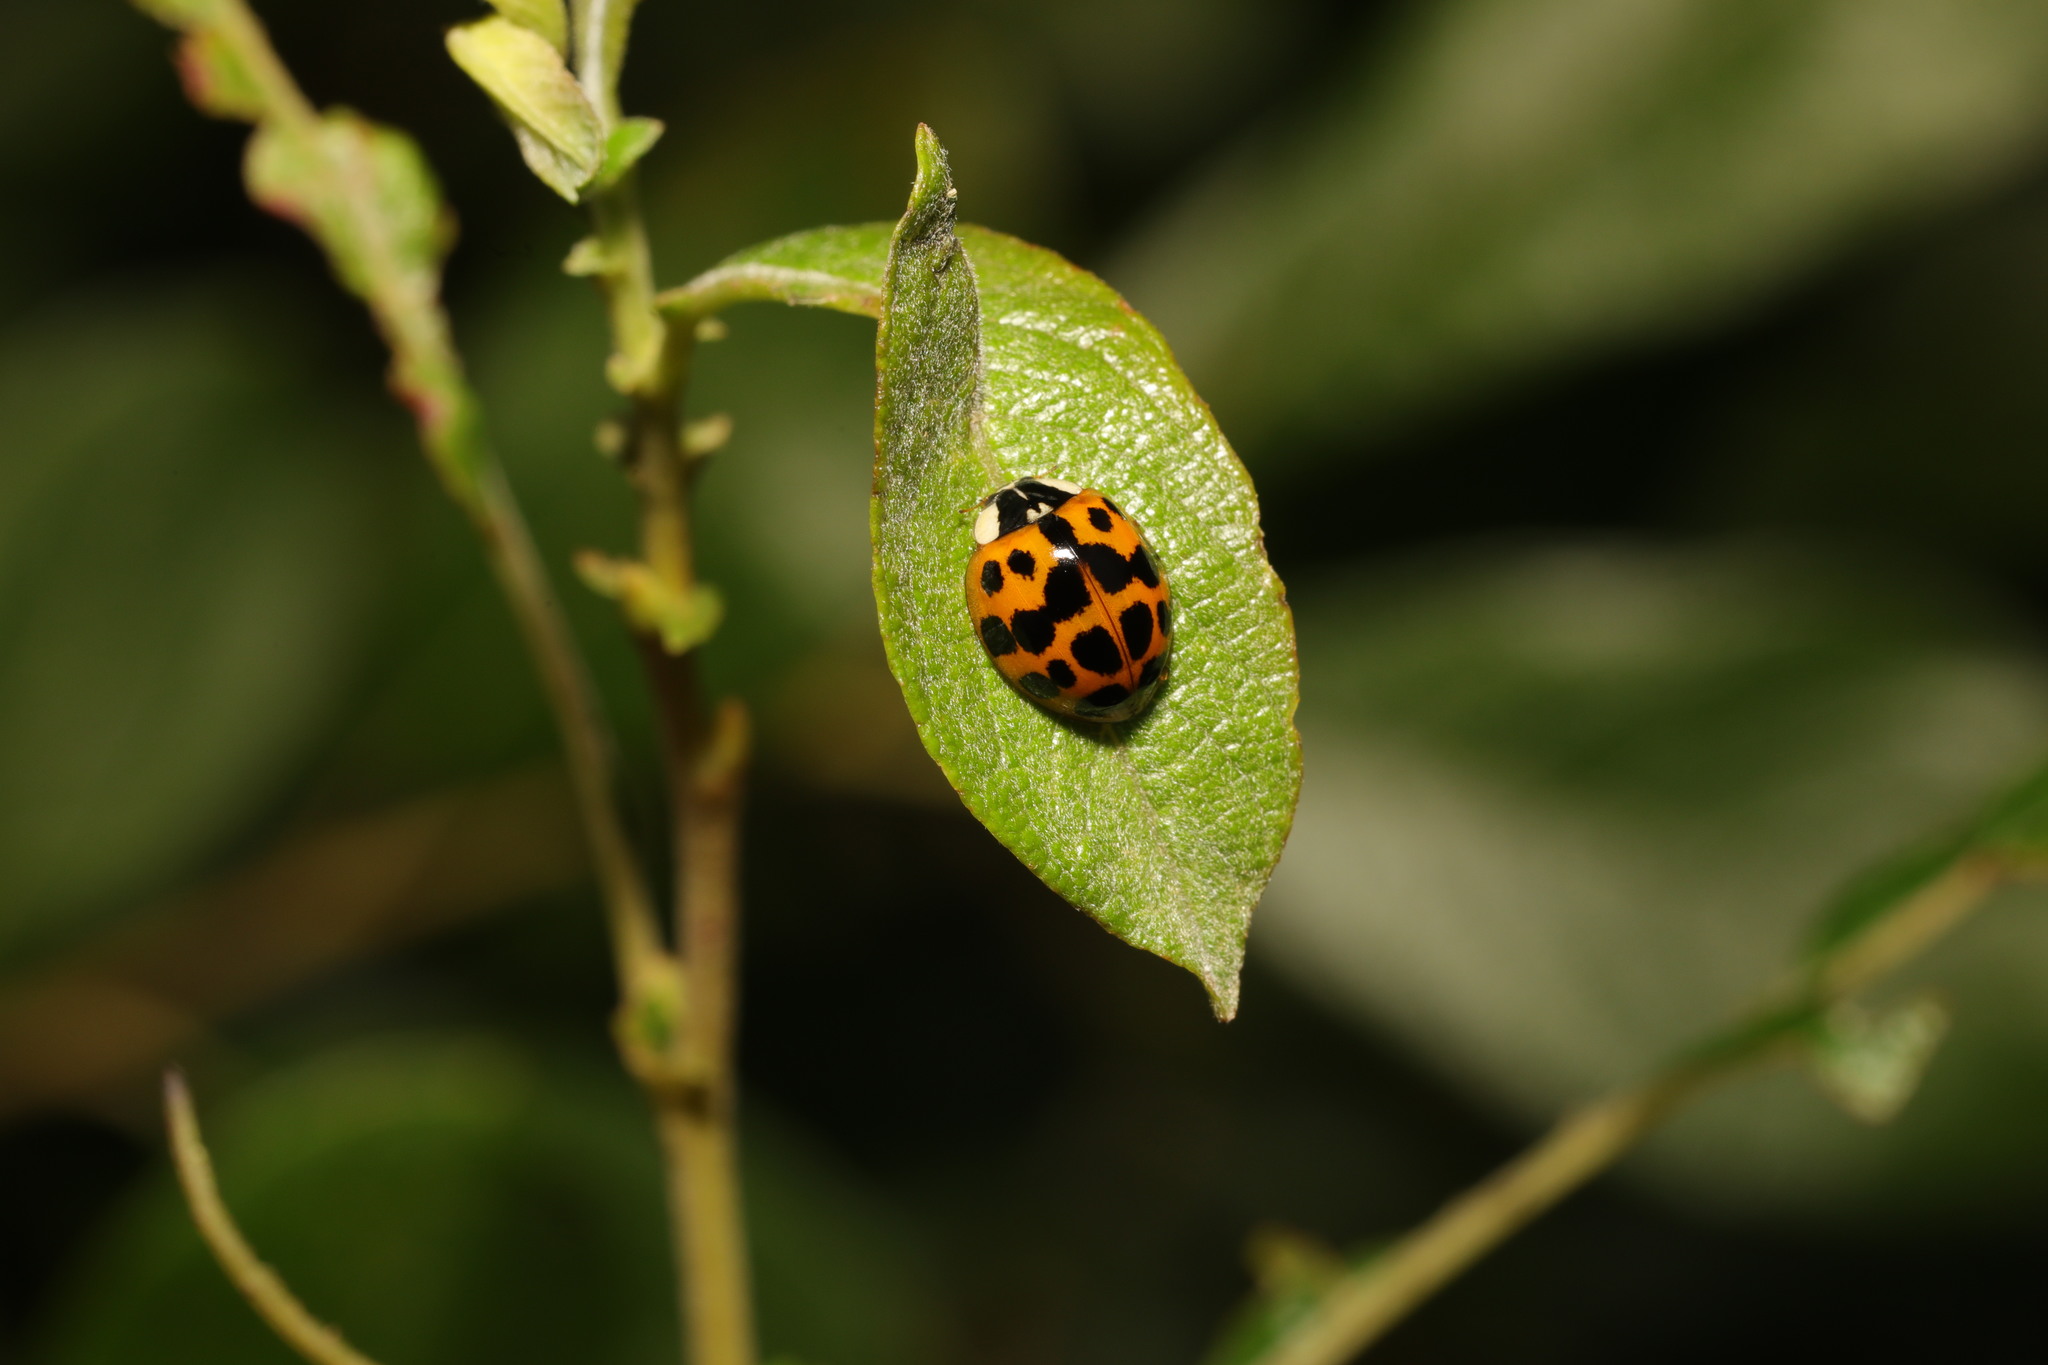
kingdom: Animalia
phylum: Arthropoda
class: Insecta
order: Coleoptera
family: Coccinellidae
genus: Harmonia
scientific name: Harmonia axyridis
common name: Harlequin ladybird
